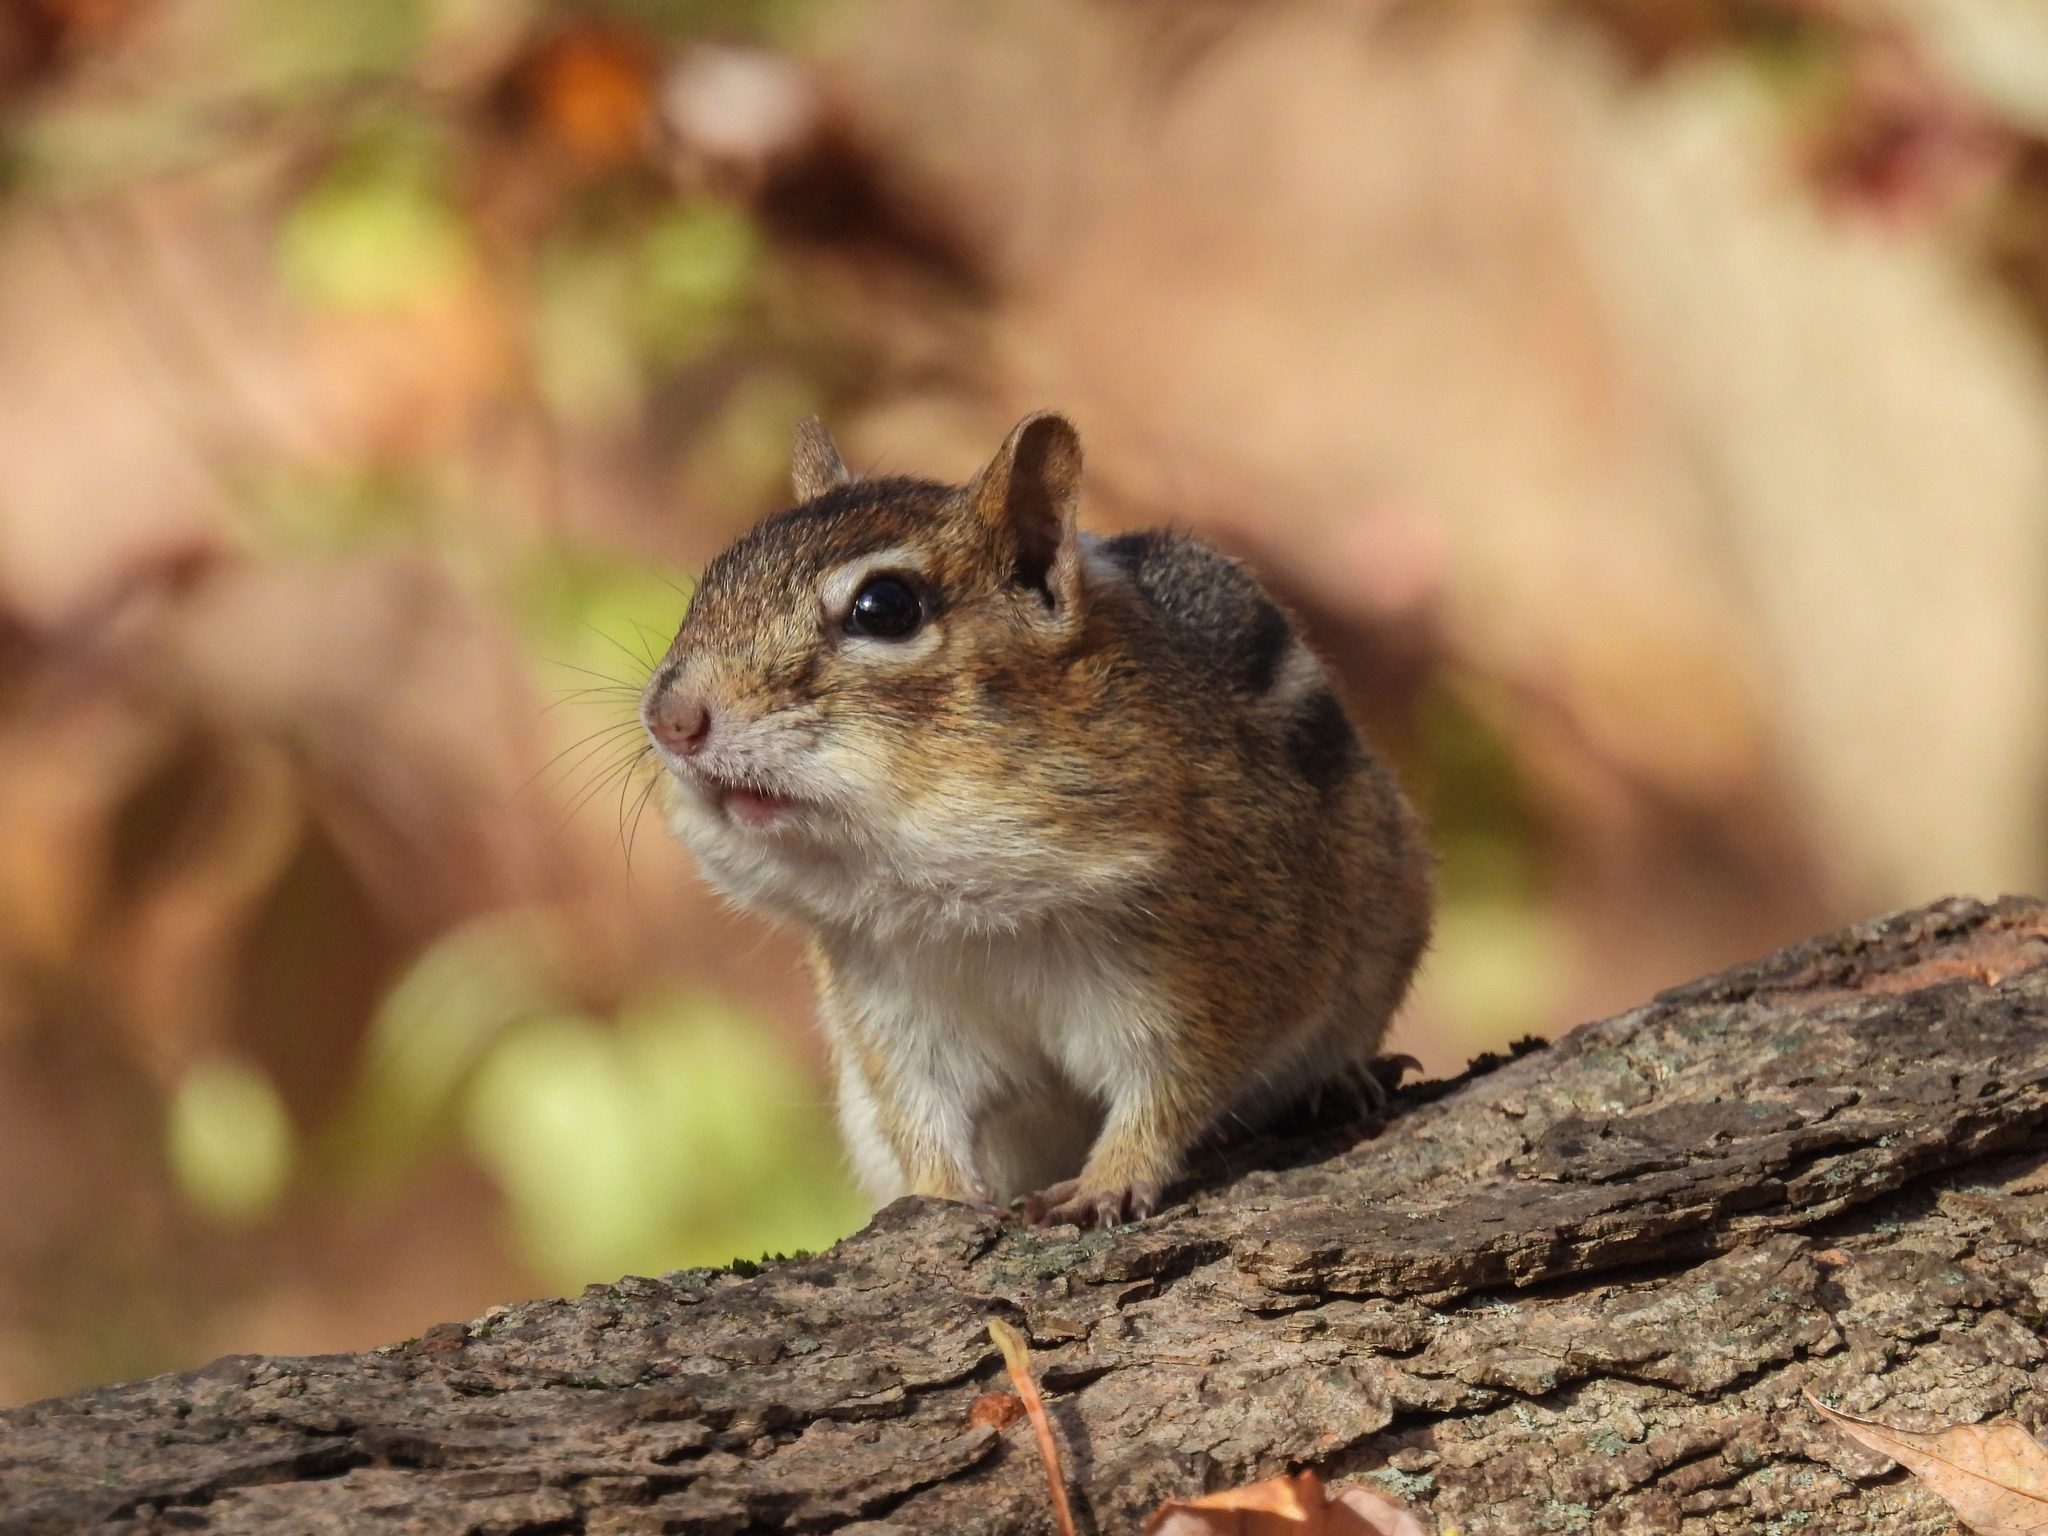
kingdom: Animalia
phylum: Chordata
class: Mammalia
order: Rodentia
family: Sciuridae
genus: Tamias
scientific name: Tamias striatus
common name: Eastern chipmunk
